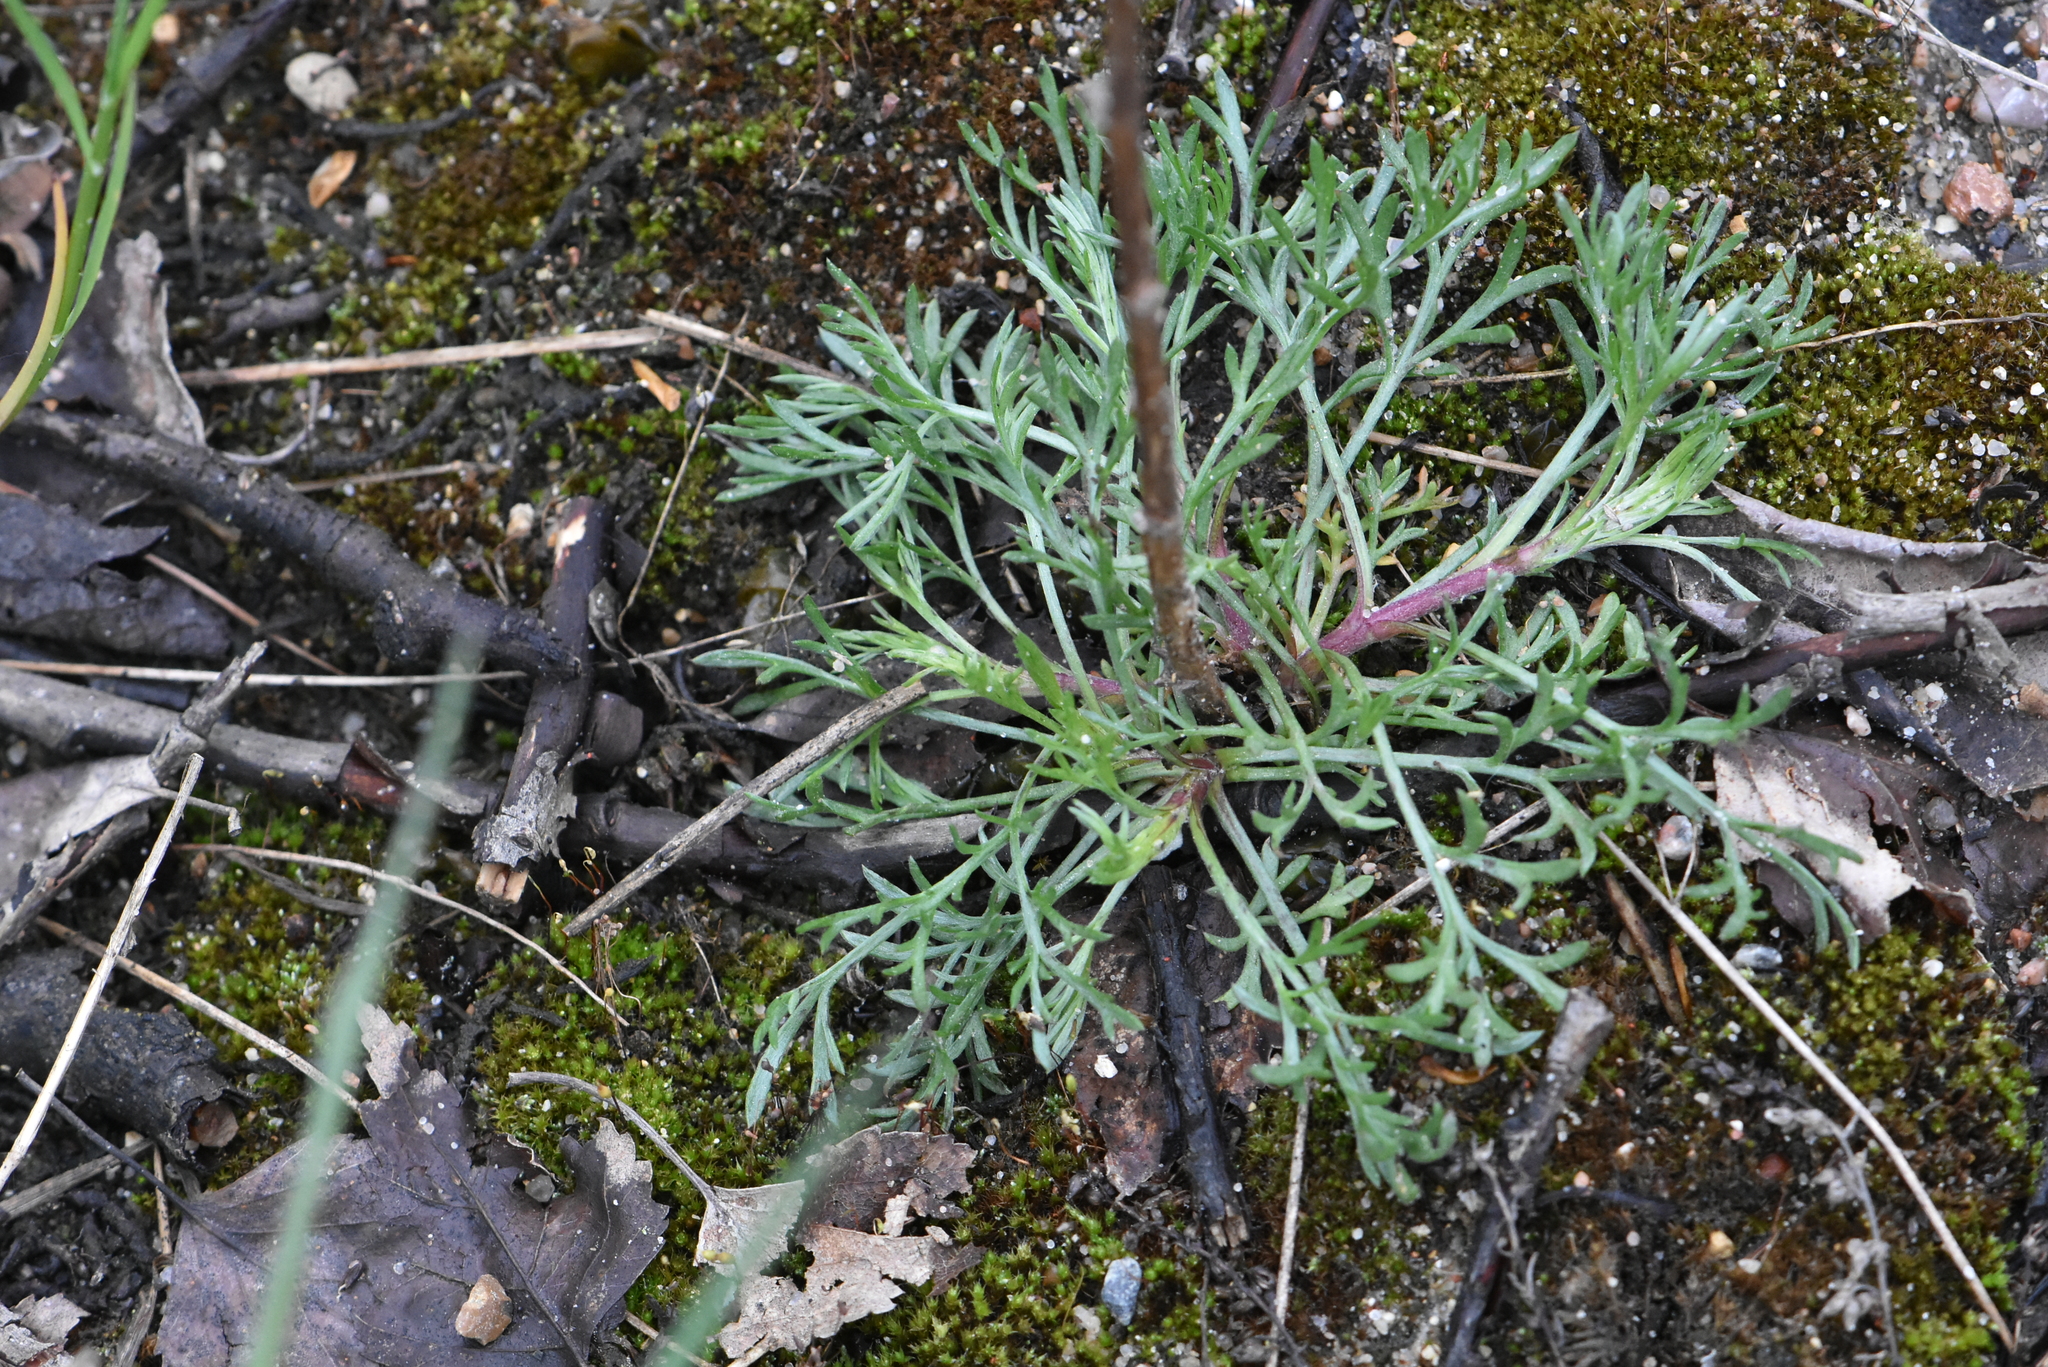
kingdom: Plantae
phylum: Tracheophyta
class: Magnoliopsida
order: Asterales
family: Asteraceae
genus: Artemisia
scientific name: Artemisia campestris
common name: Field wormwood
